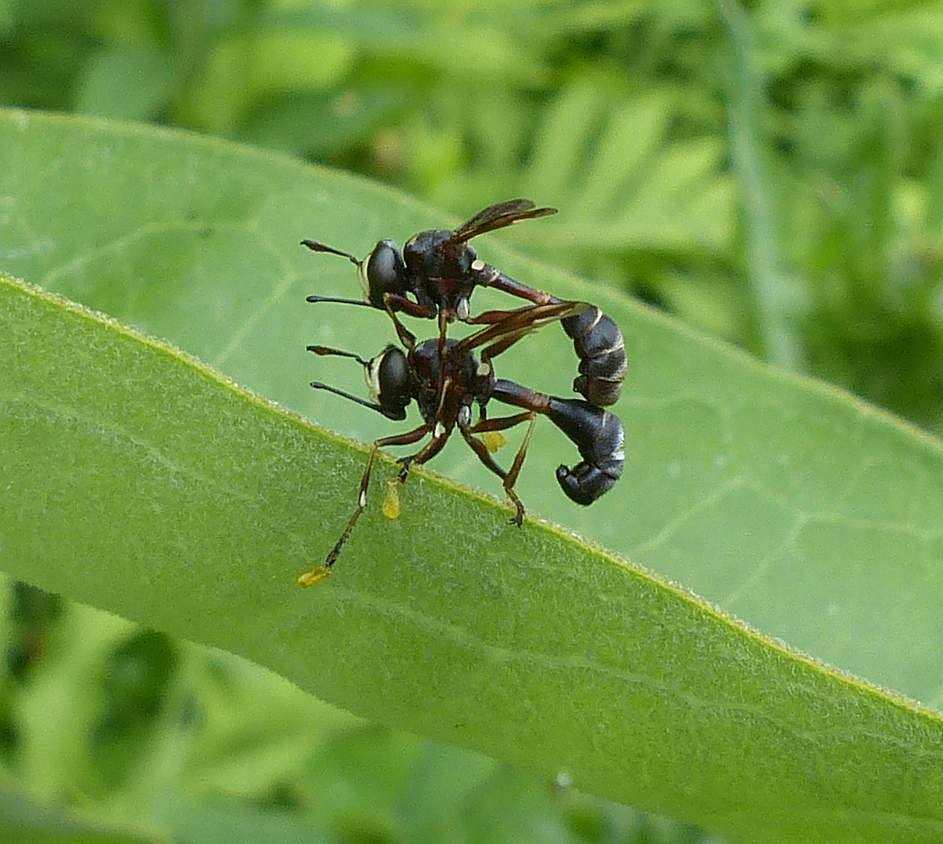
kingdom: Animalia
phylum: Arthropoda
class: Insecta
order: Diptera
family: Conopidae
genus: Physocephala
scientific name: Physocephala furcillata
